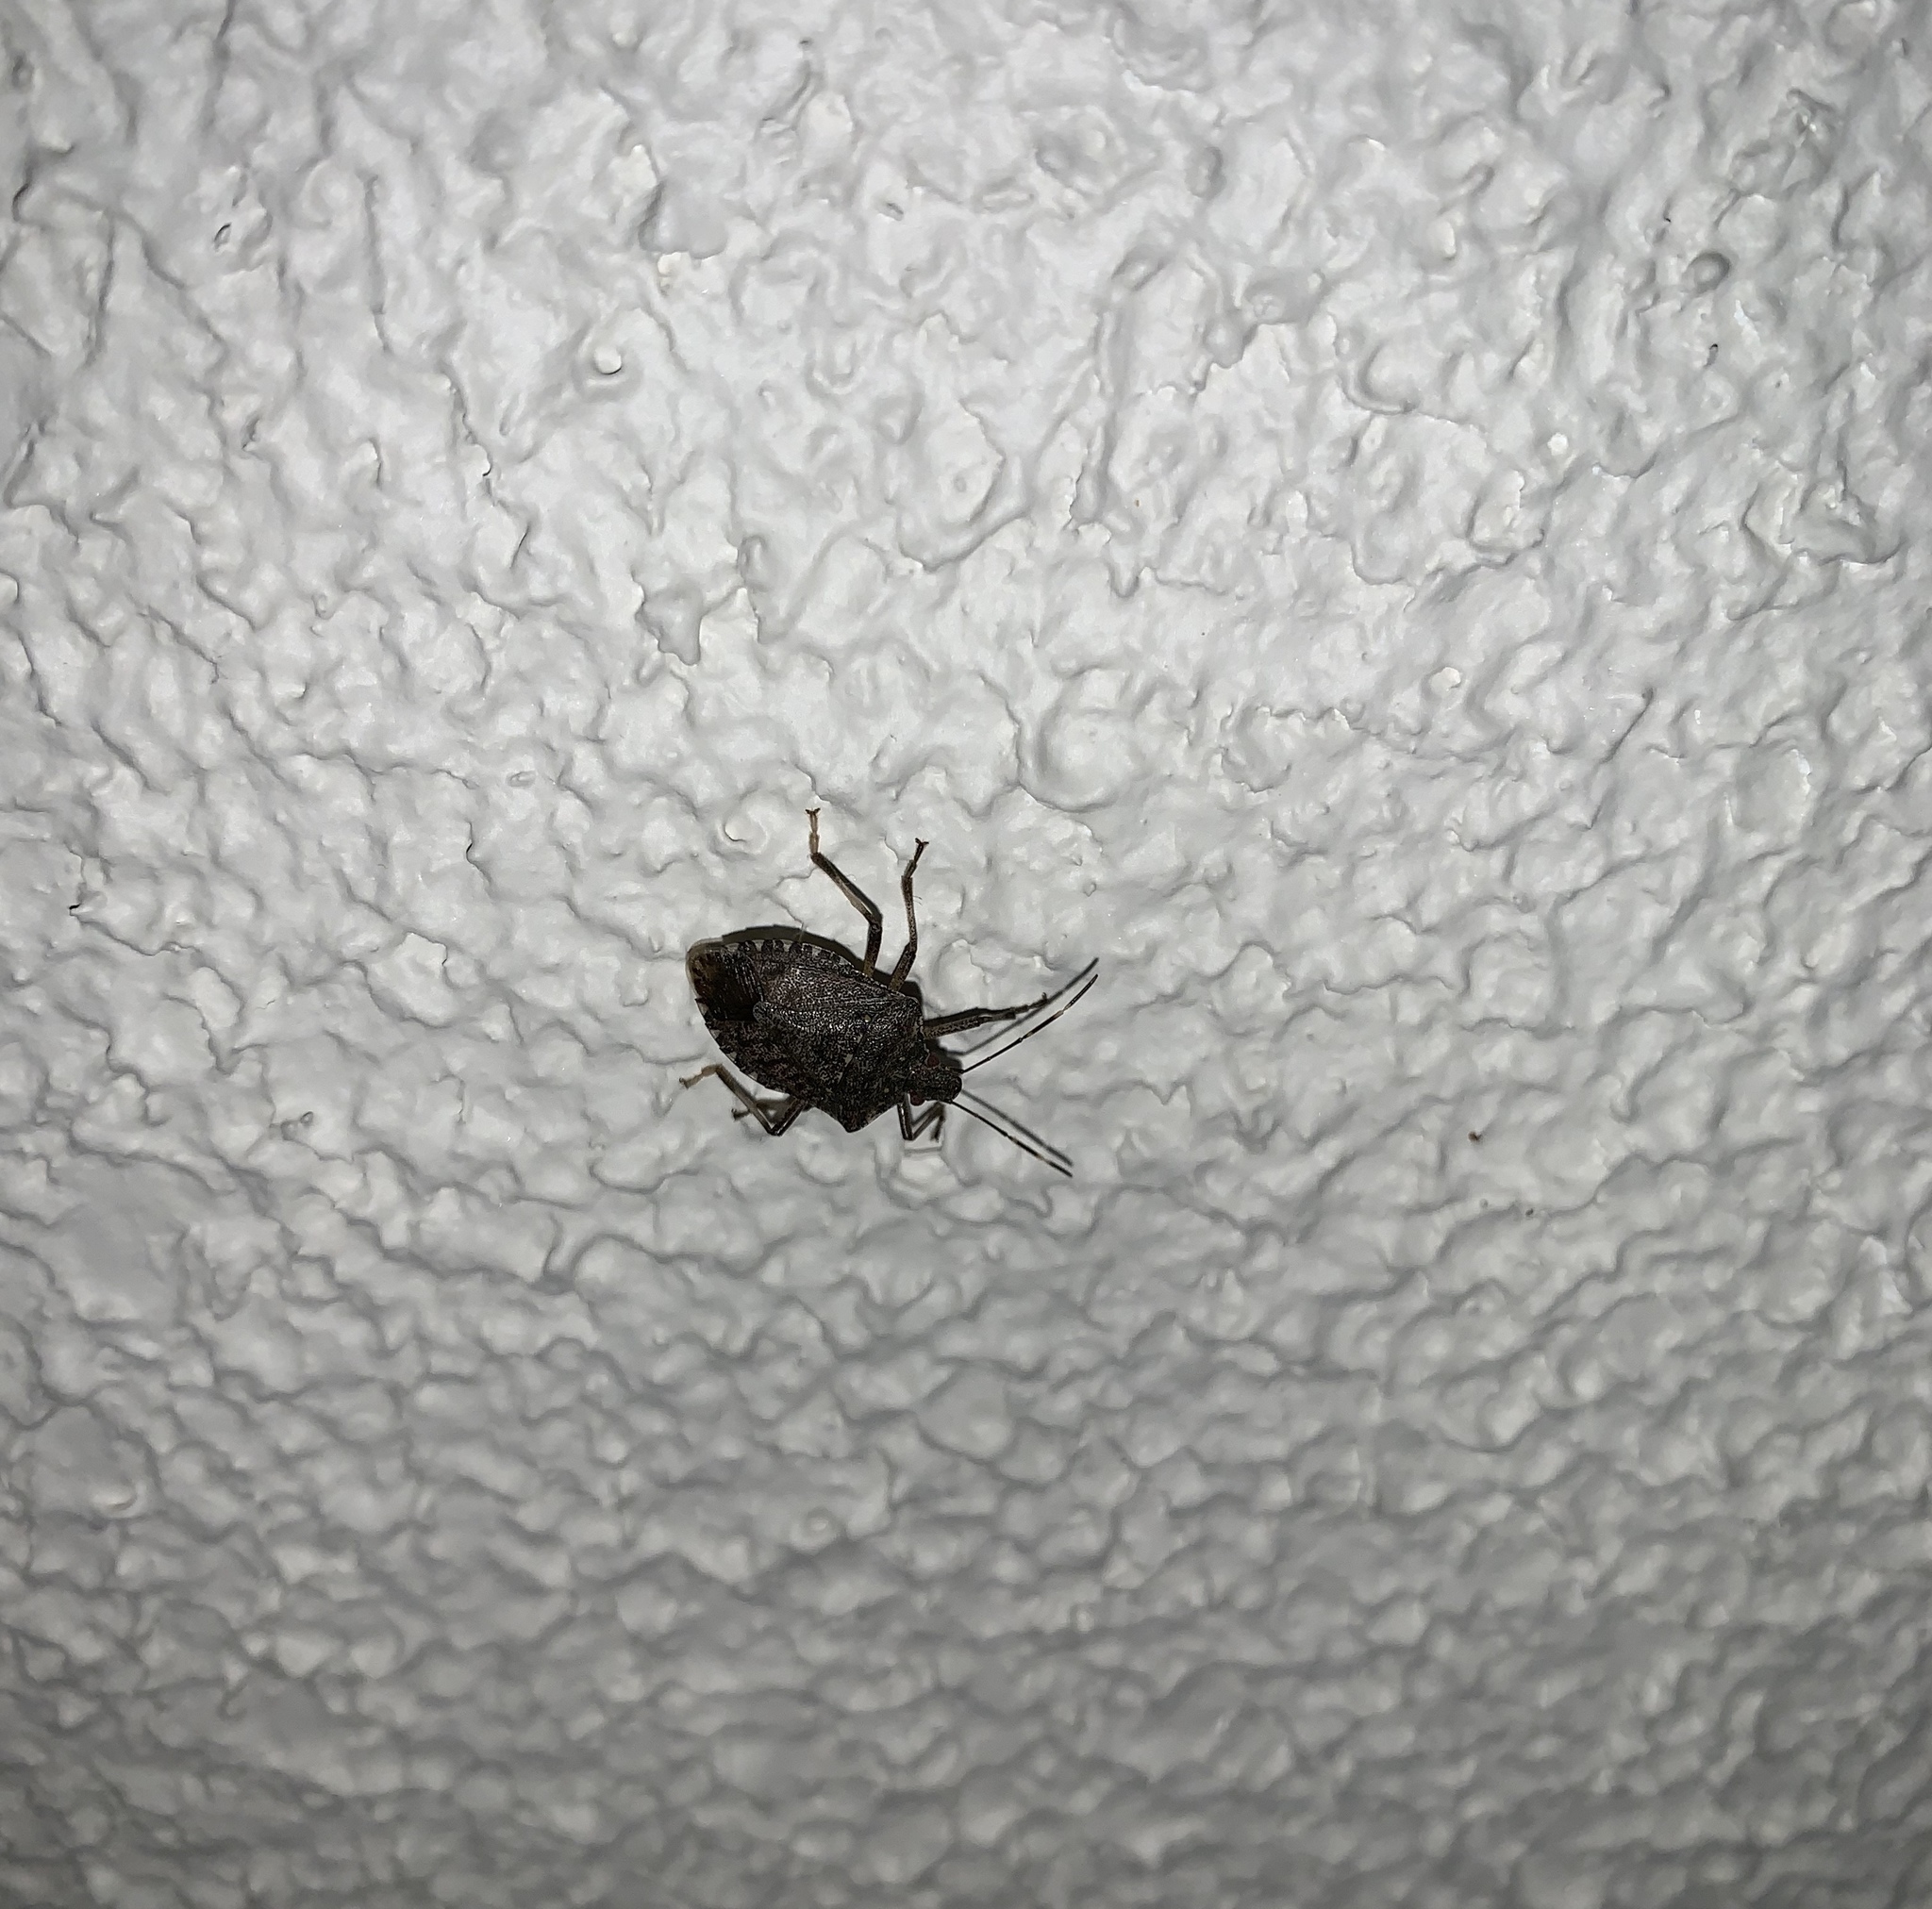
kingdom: Animalia
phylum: Arthropoda
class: Insecta
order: Hemiptera
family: Pentatomidae
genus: Halyomorpha
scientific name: Halyomorpha halys
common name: Brown marmorated stink bug
